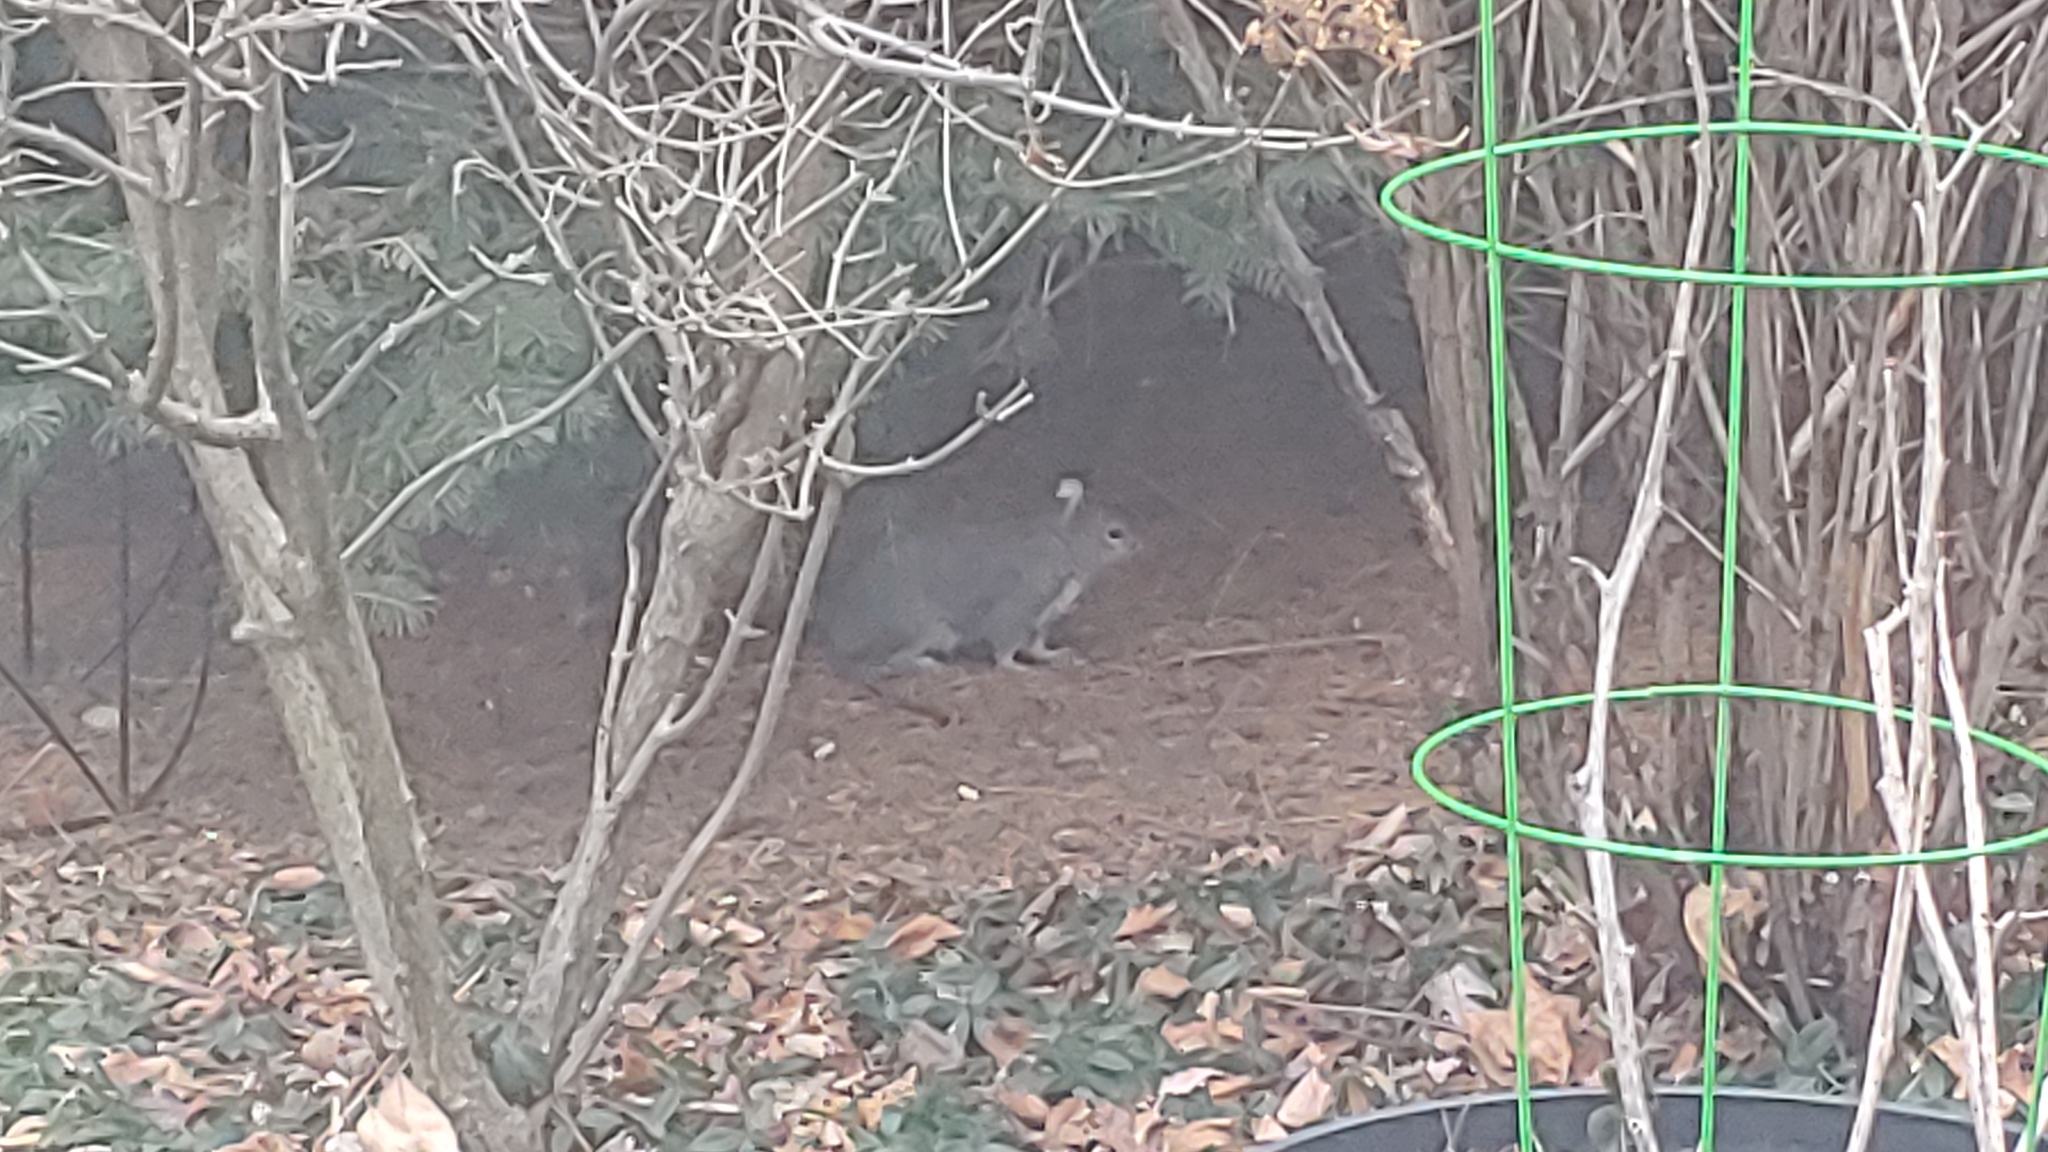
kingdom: Animalia
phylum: Chordata
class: Mammalia
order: Rodentia
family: Sciuridae
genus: Sciurus
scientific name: Sciurus carolinensis
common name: Eastern gray squirrel
